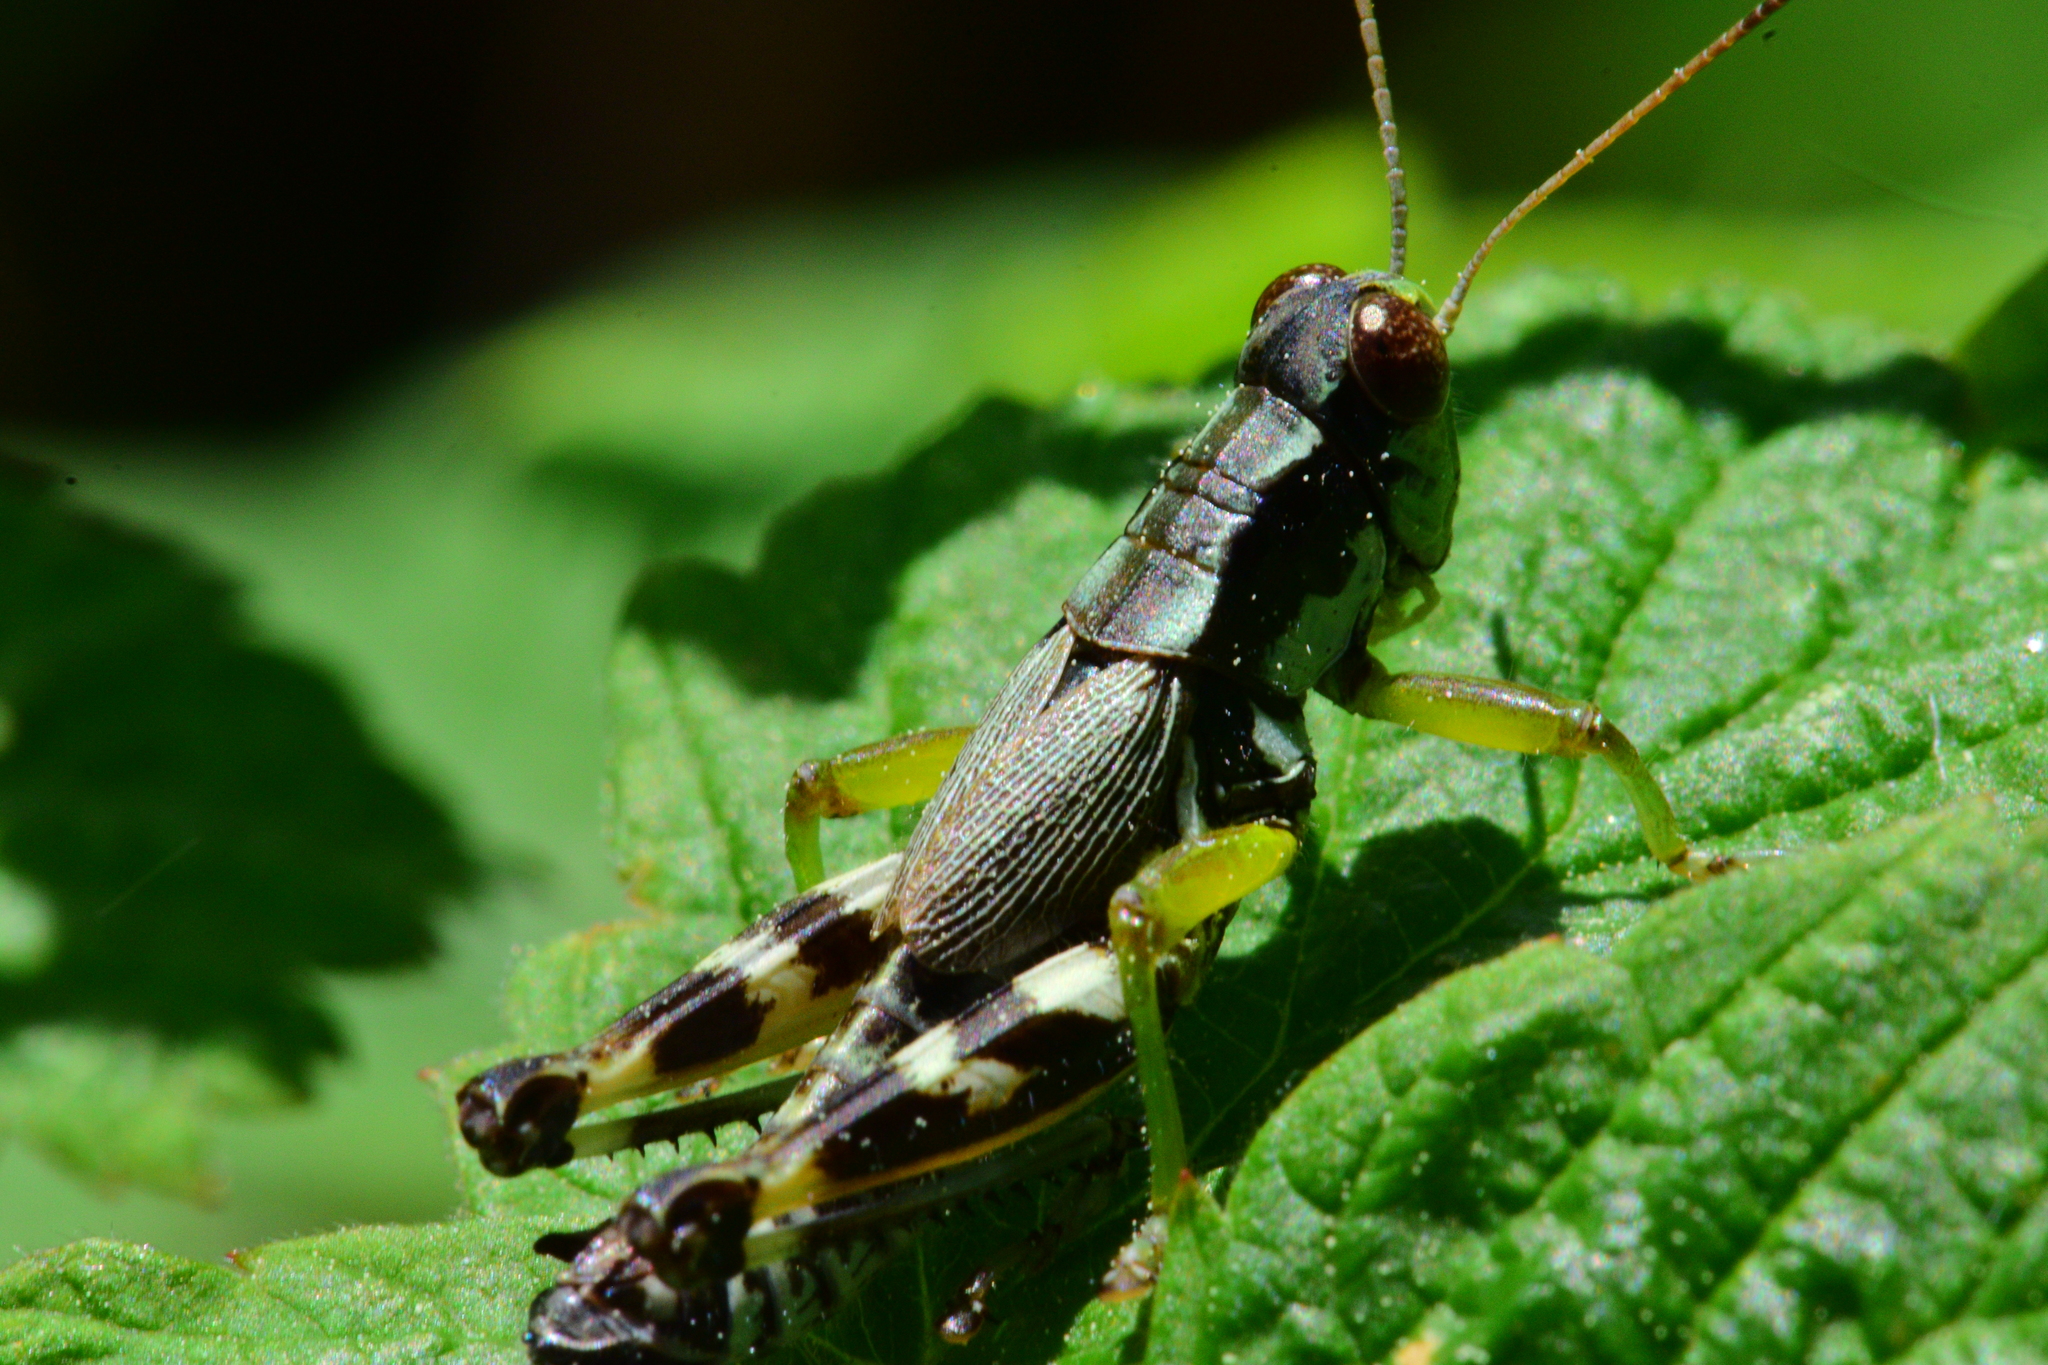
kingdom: Animalia
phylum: Arthropoda
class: Insecta
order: Orthoptera
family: Acrididae
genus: Melanoplus
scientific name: Melanoplus viridipes
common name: Green-legged locust
